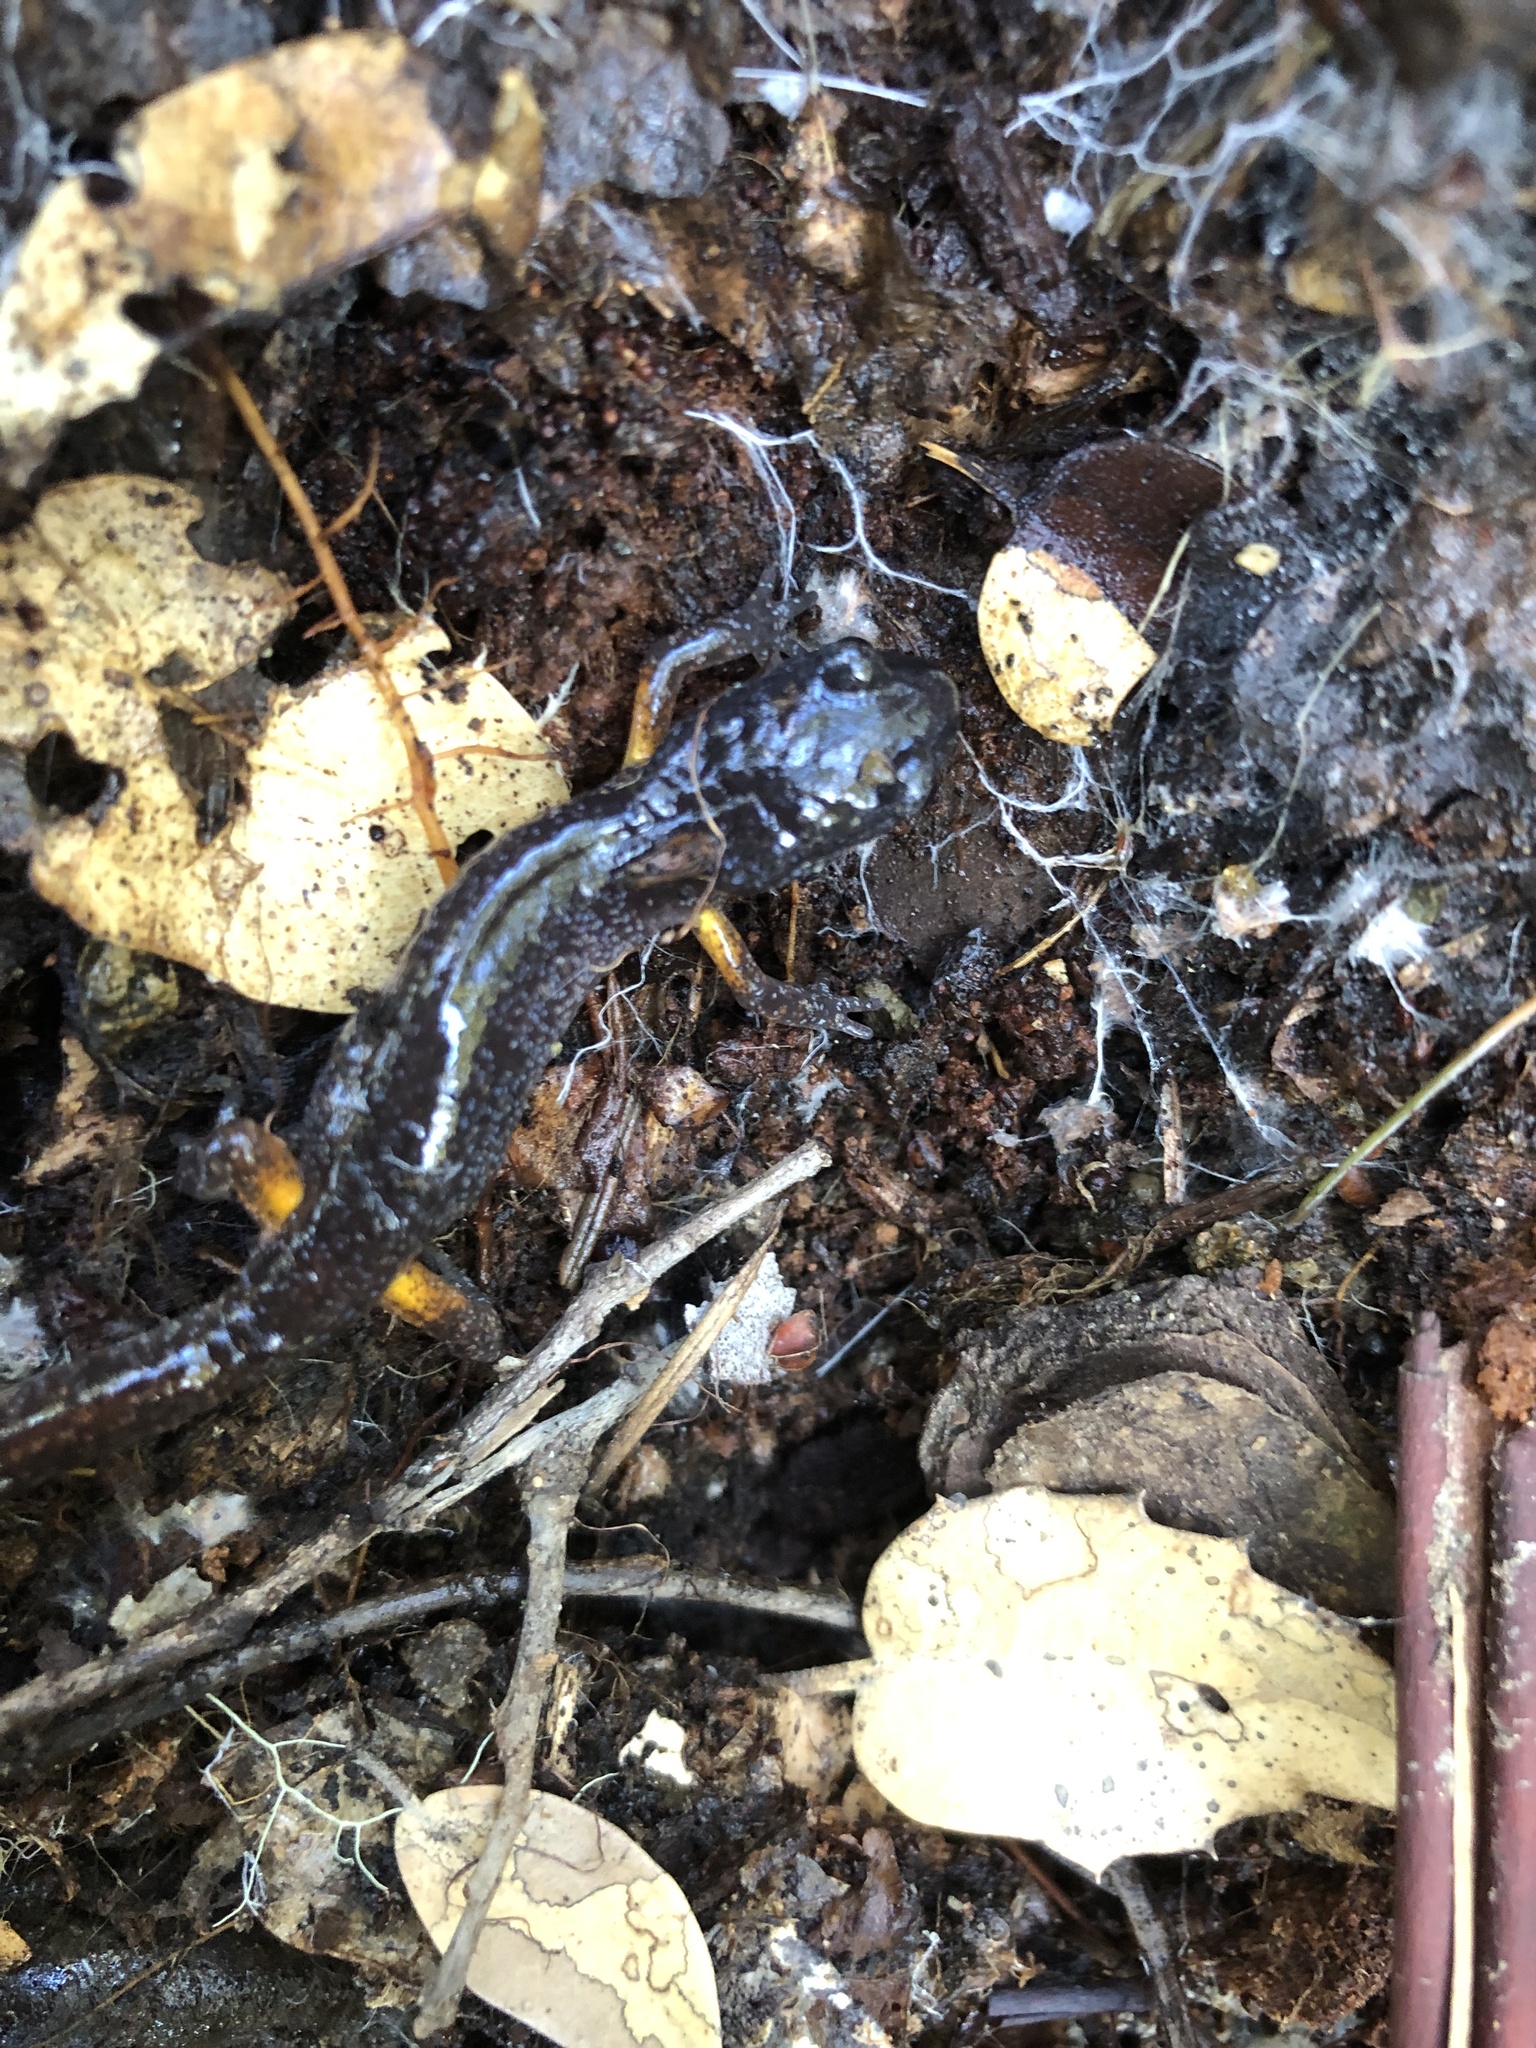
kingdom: Animalia
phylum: Chordata
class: Amphibia
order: Caudata
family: Plethodontidae
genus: Ensatina
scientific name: Ensatina eschscholtzii
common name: Ensatina
